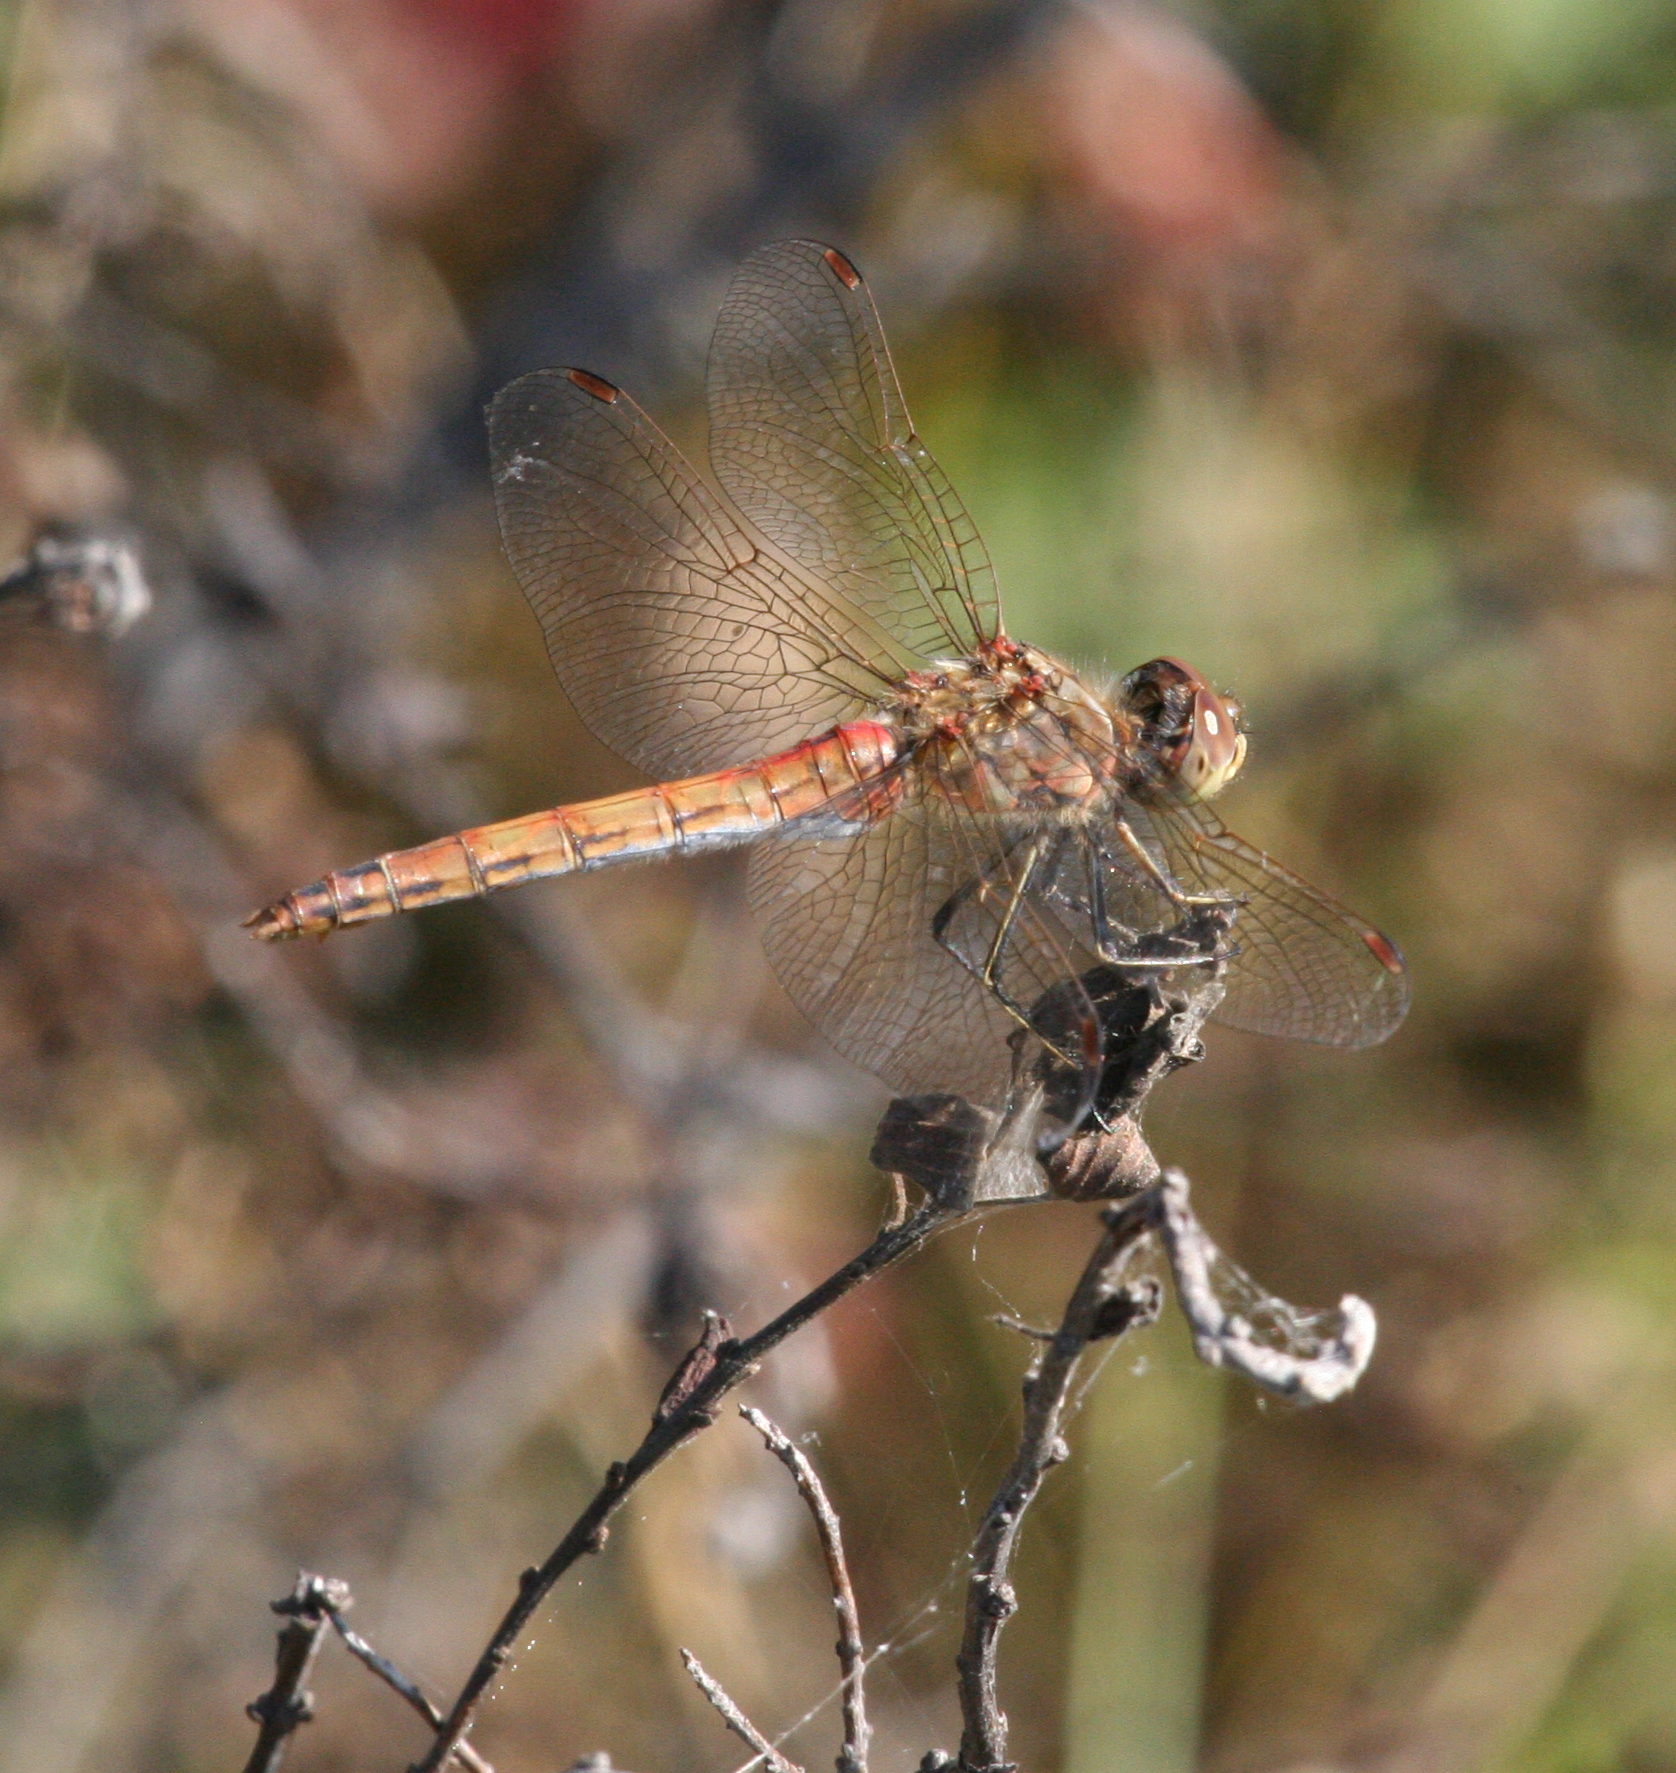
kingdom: Animalia
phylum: Arthropoda
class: Insecta
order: Odonata
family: Libellulidae
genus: Sympetrum
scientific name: Sympetrum vulgatum
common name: Vagrant darter
